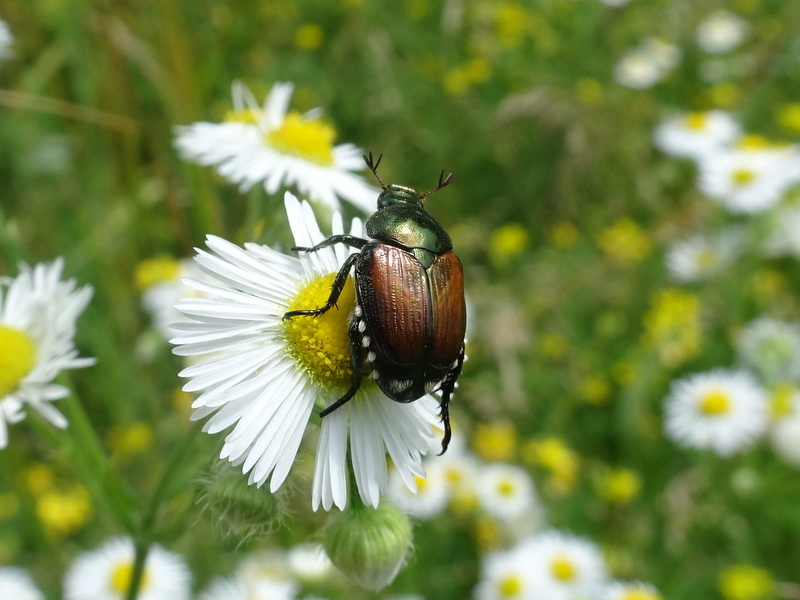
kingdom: Animalia
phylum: Arthropoda
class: Insecta
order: Coleoptera
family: Scarabaeidae
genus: Popillia
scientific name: Popillia japonica
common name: Japanese beetle
